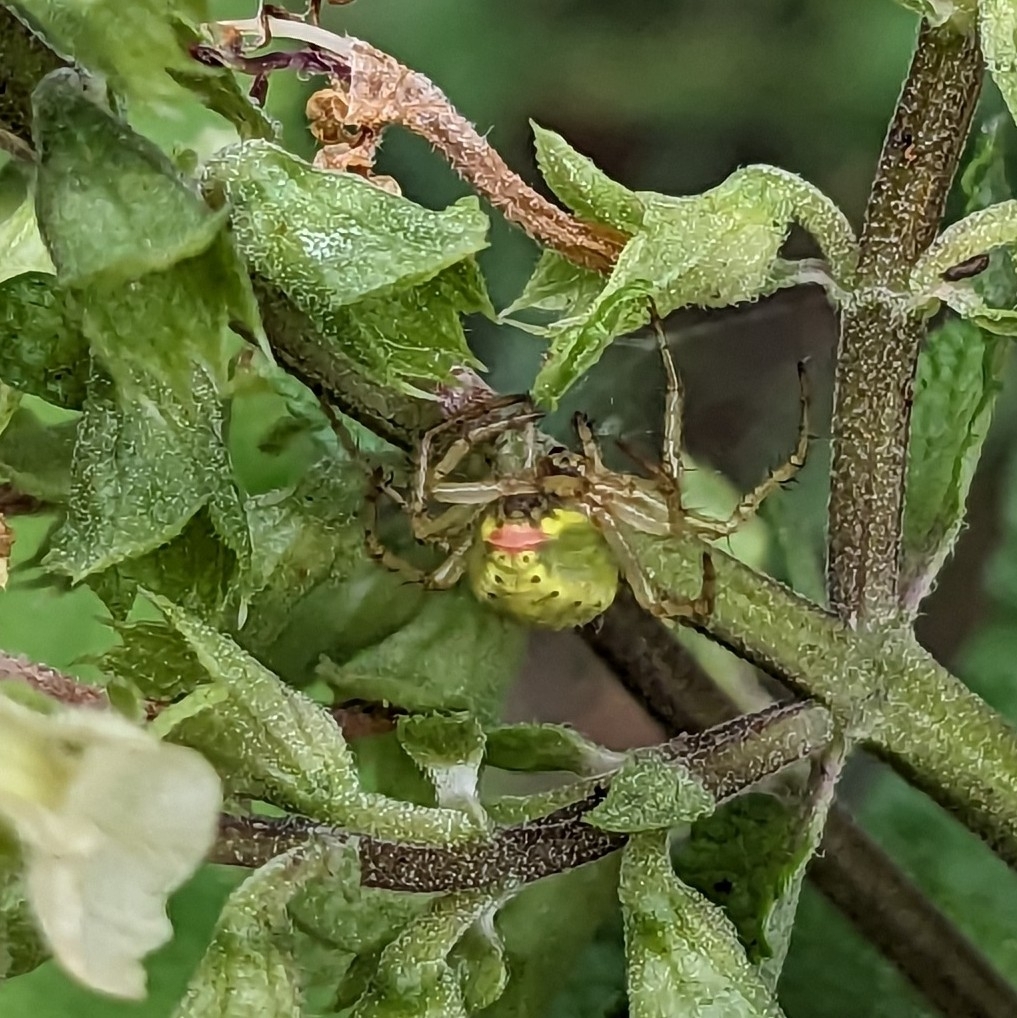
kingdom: Animalia
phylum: Arthropoda
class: Arachnida
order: Araneae
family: Araneidae
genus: Araniella
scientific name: Araniella
